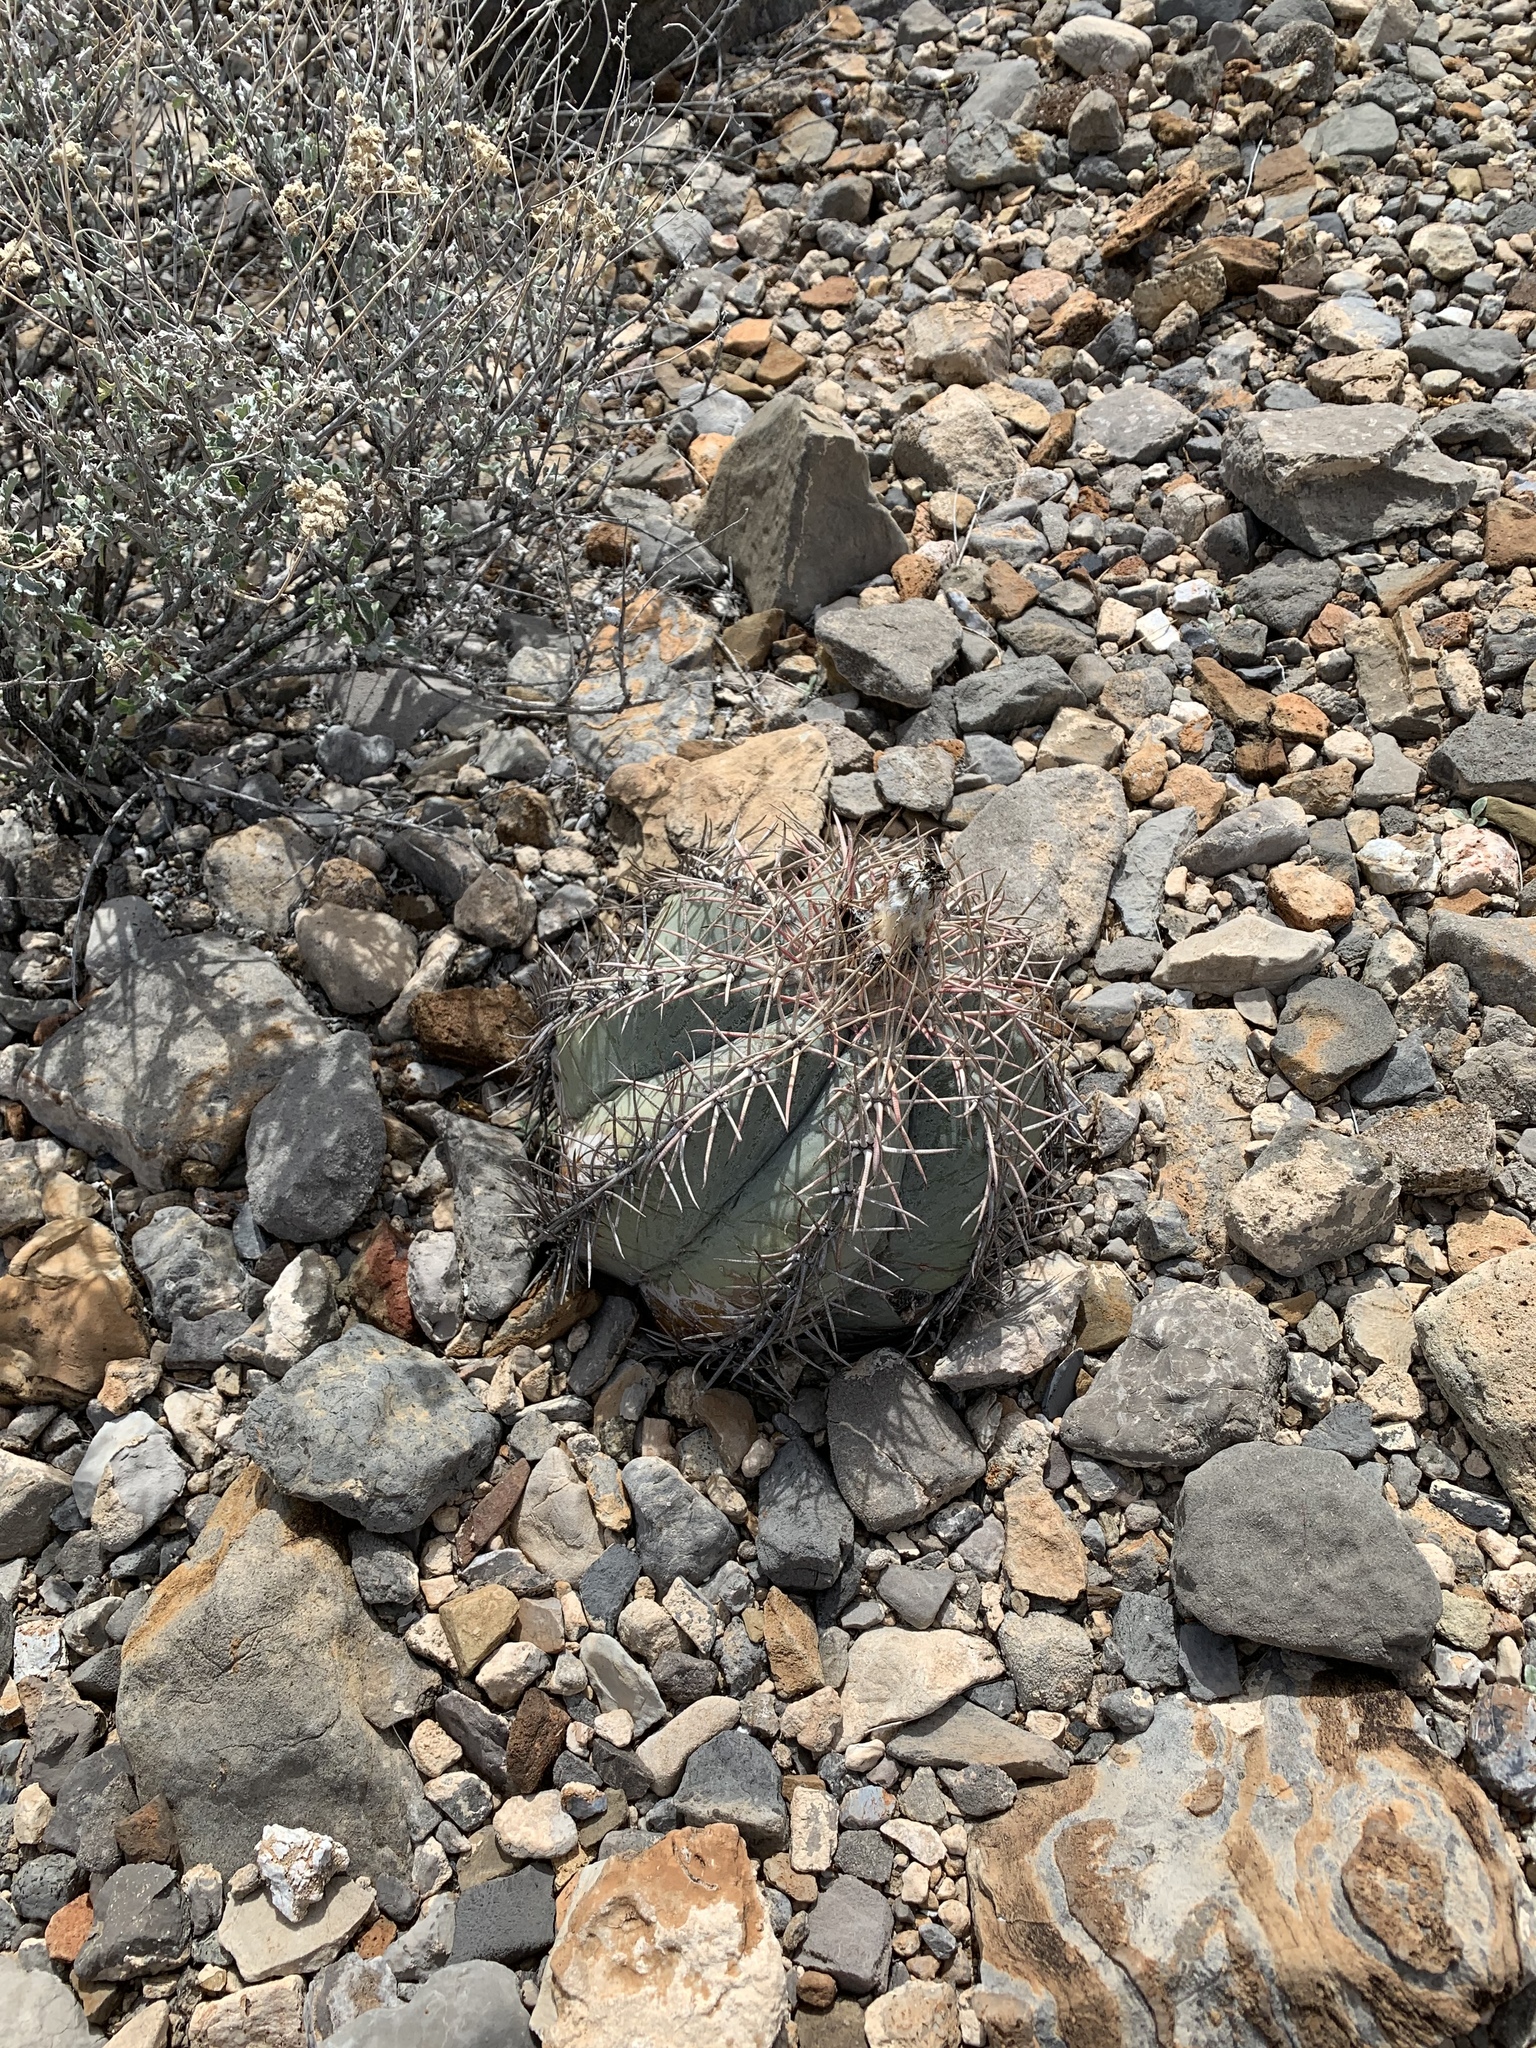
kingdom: Plantae
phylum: Tracheophyta
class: Magnoliopsida
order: Caryophyllales
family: Cactaceae
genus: Echinocactus
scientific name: Echinocactus horizonthalonius
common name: Devilshead
